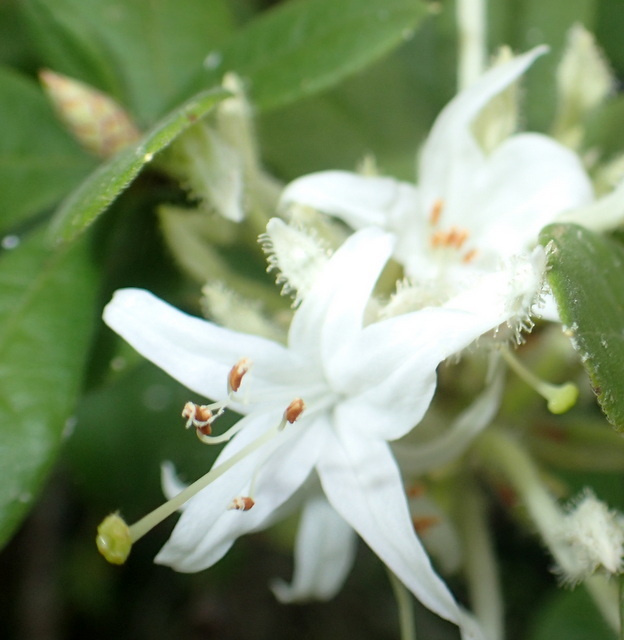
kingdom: Plantae
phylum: Tracheophyta
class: Magnoliopsida
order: Ericales
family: Ericaceae
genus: Rhododendron
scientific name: Rhododendron serrulatum
